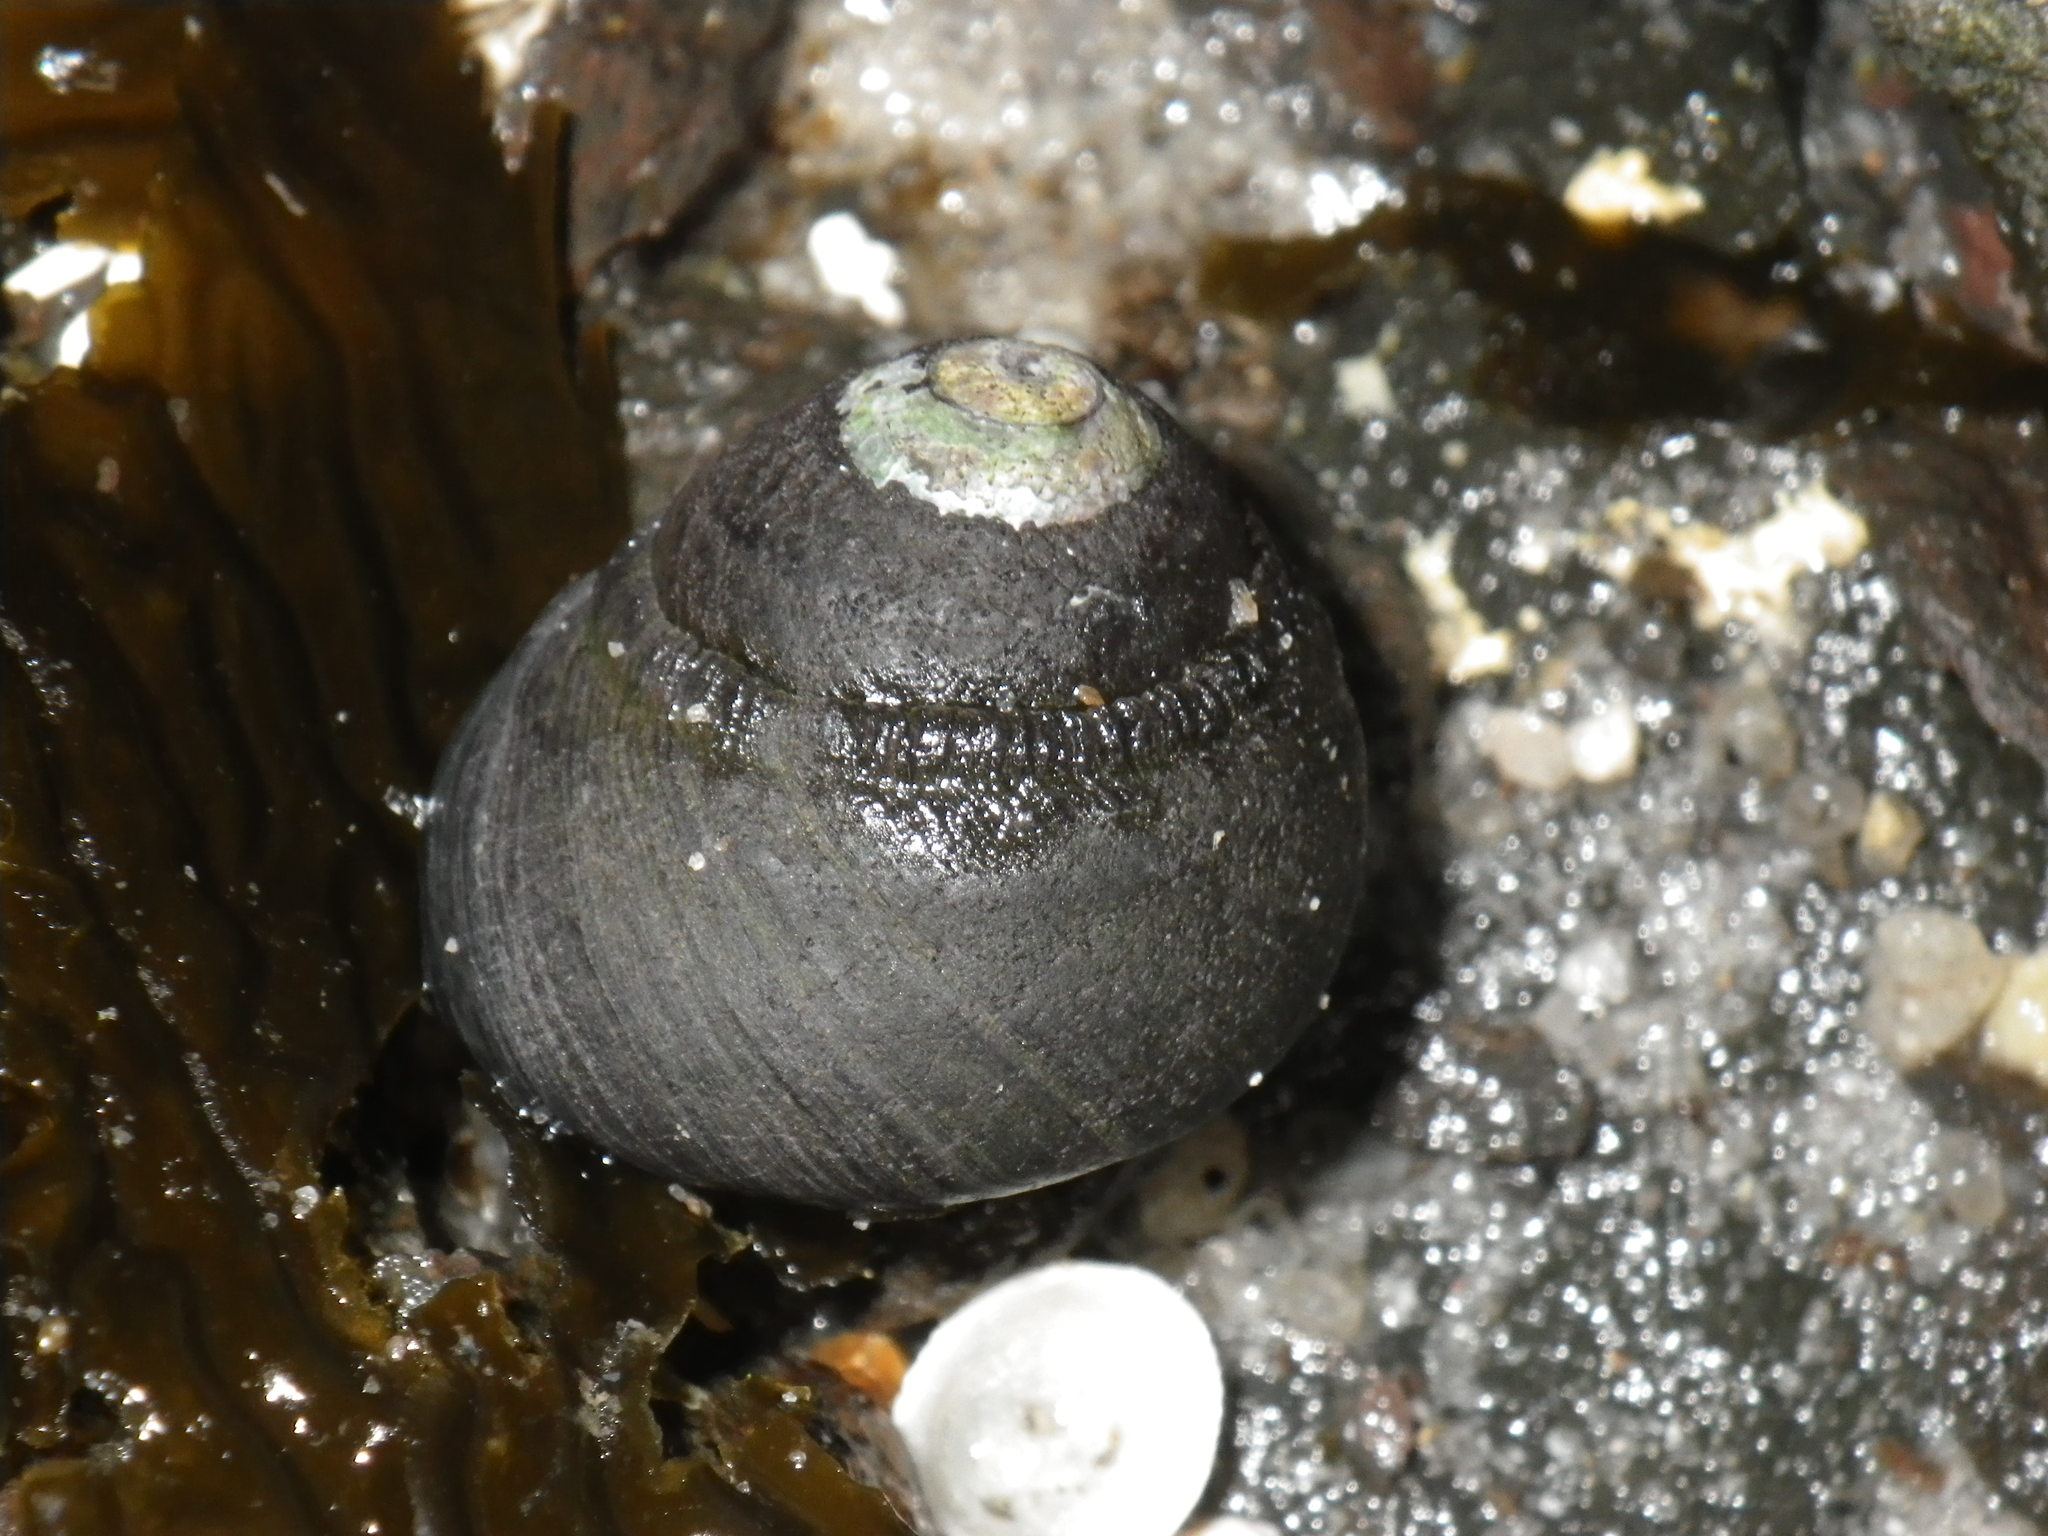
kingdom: Animalia
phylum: Mollusca
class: Gastropoda
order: Trochida
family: Tegulidae
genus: Tegula
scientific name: Tegula funebralis
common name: Black tegula
